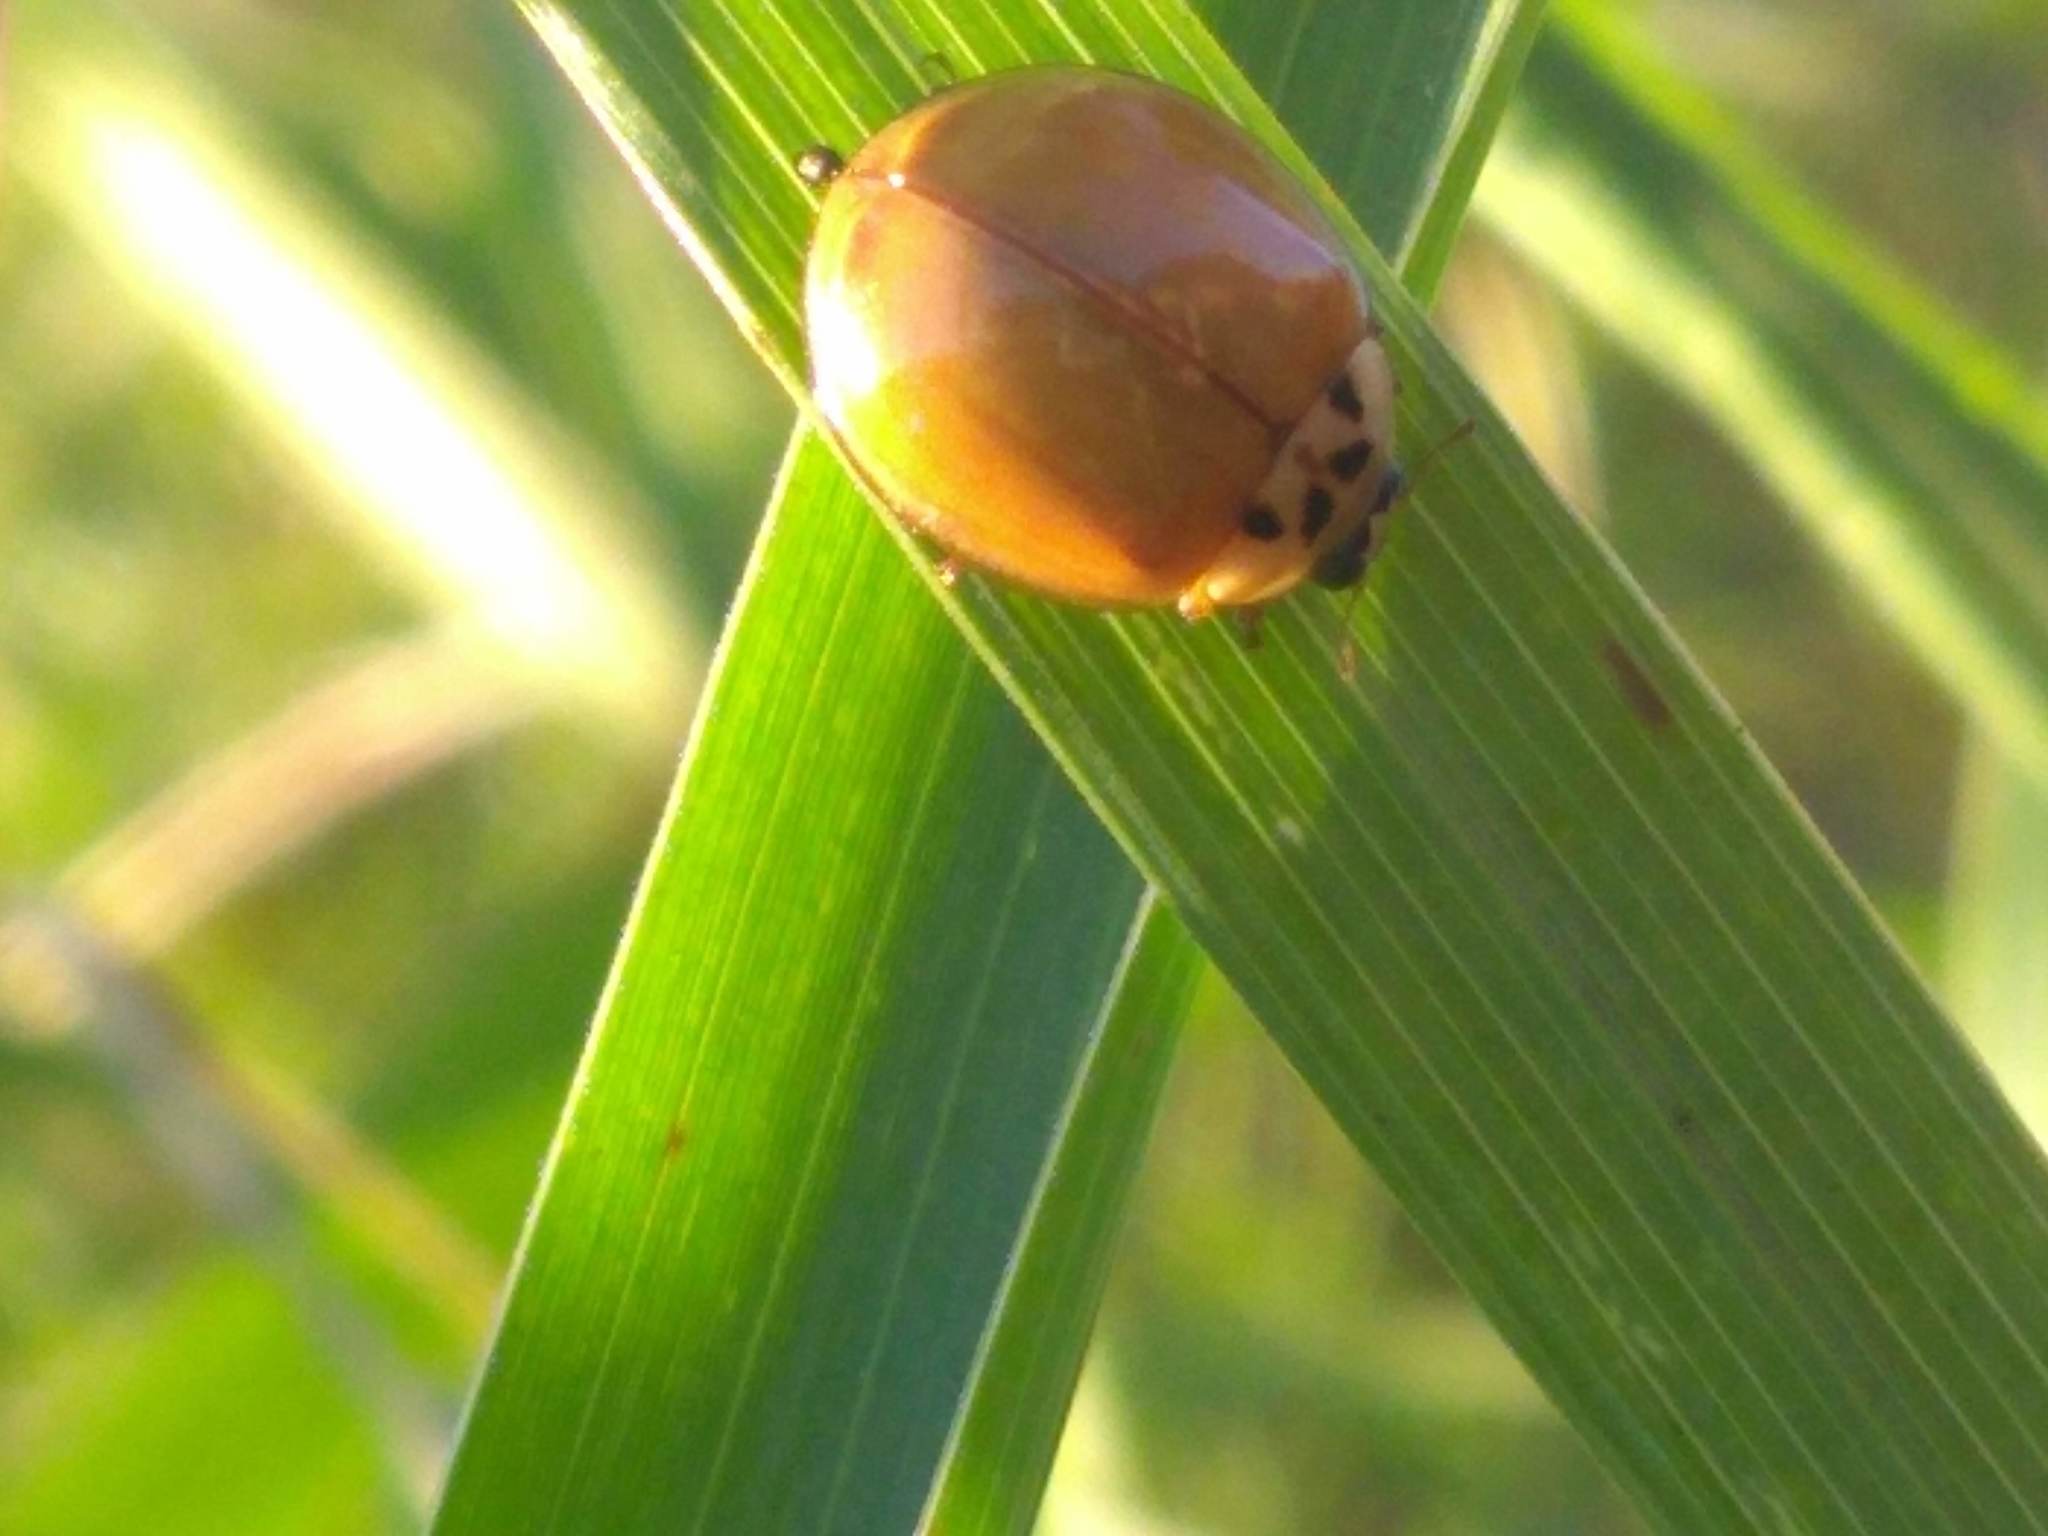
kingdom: Animalia
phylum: Arthropoda
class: Insecta
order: Coleoptera
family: Coccinellidae
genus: Harmonia
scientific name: Harmonia axyridis
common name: Harlequin ladybird
